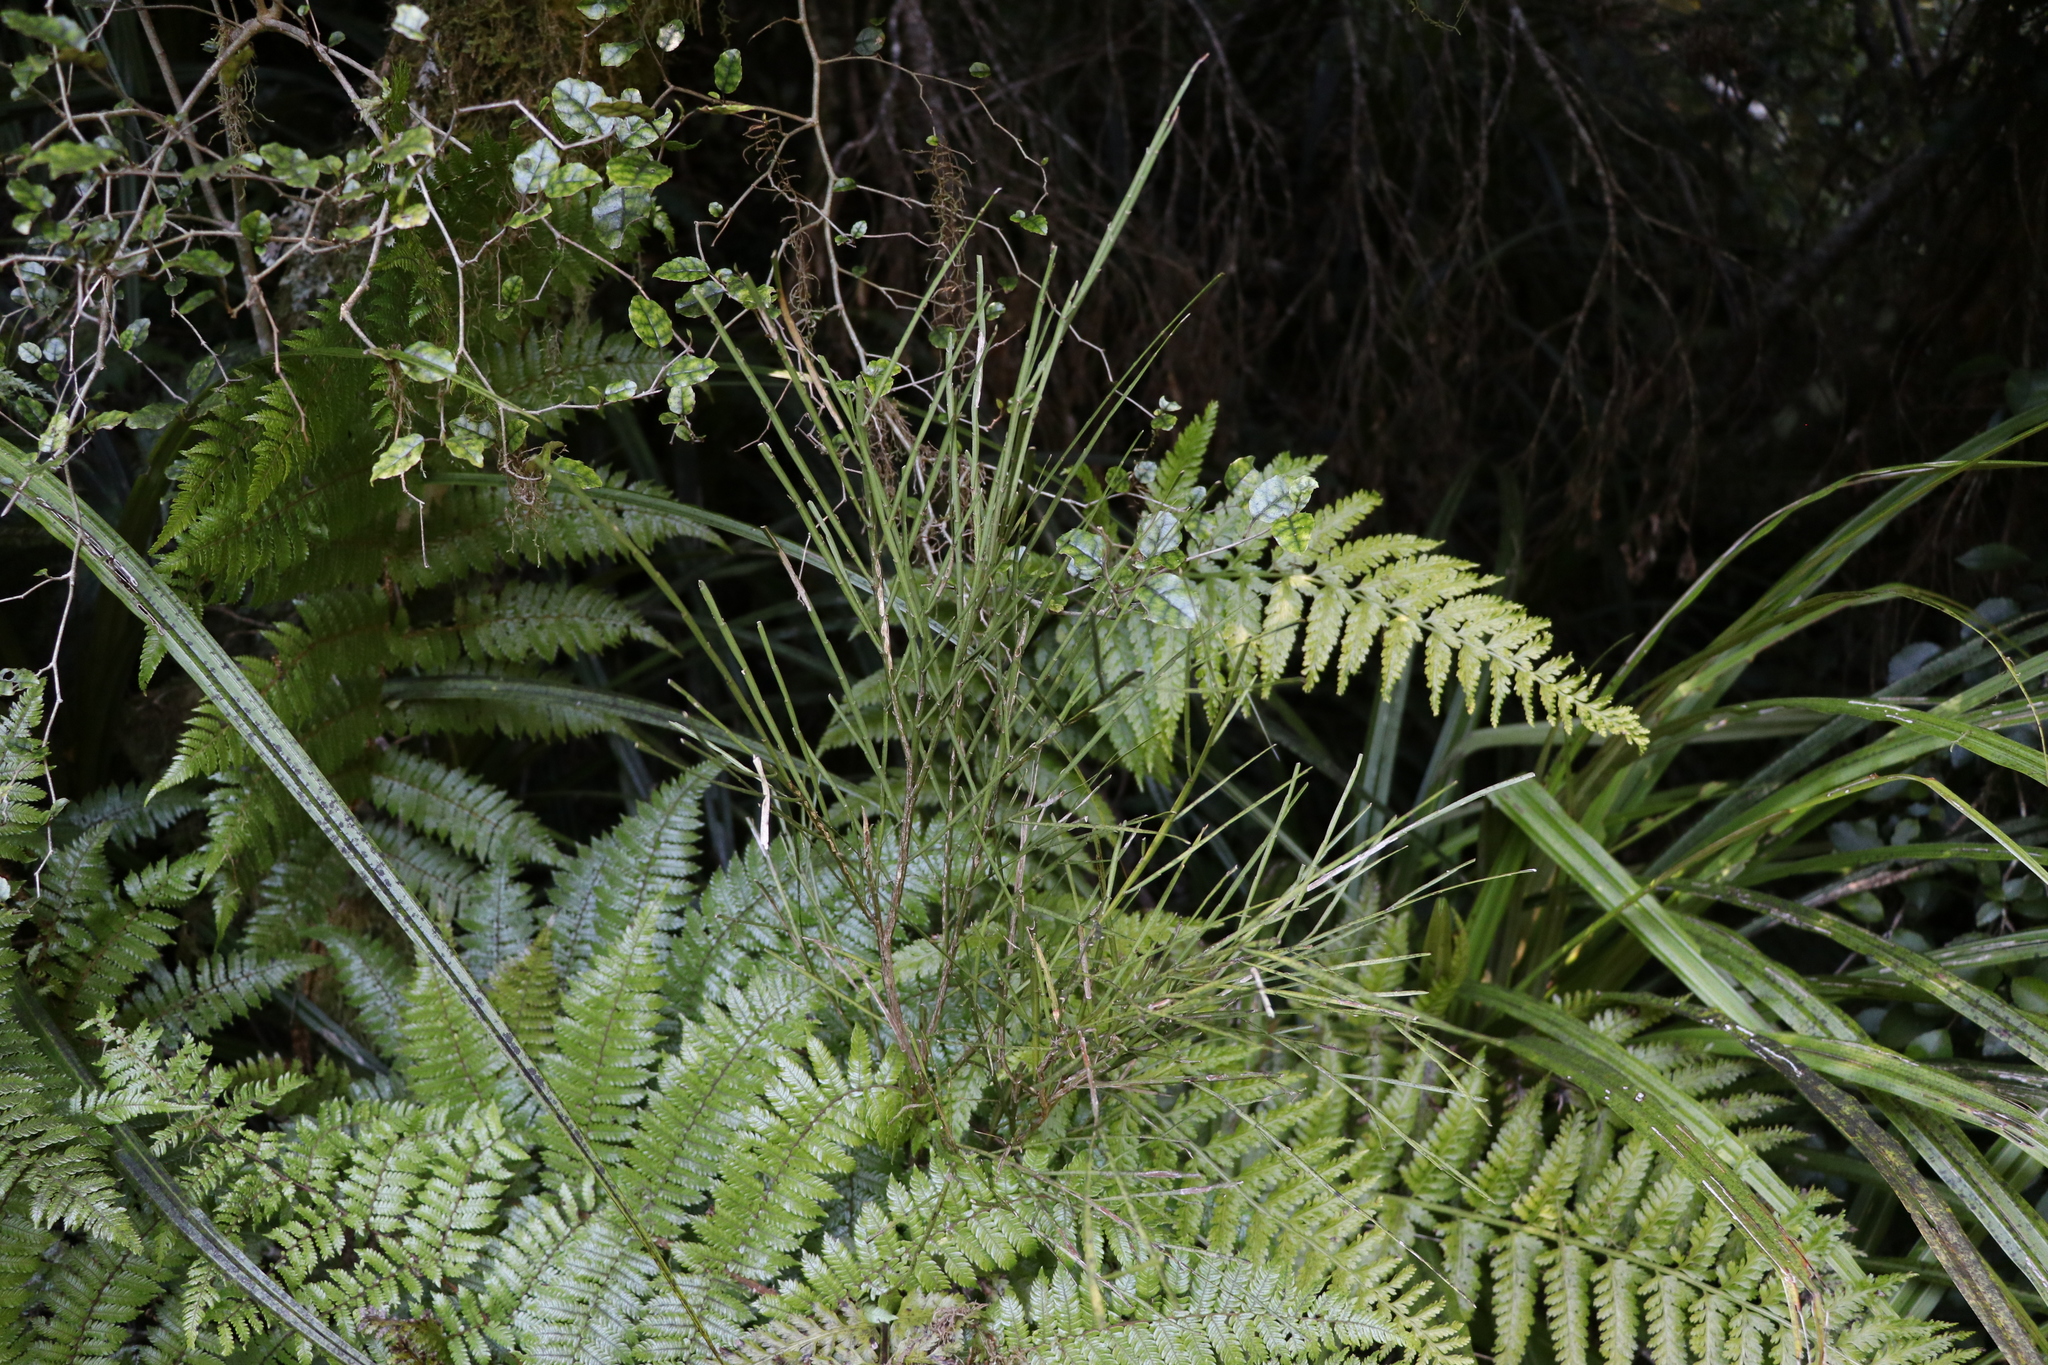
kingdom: Plantae
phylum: Tracheophyta
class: Magnoliopsida
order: Fabales
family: Fabaceae
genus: Carmichaelia
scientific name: Carmichaelia australis
